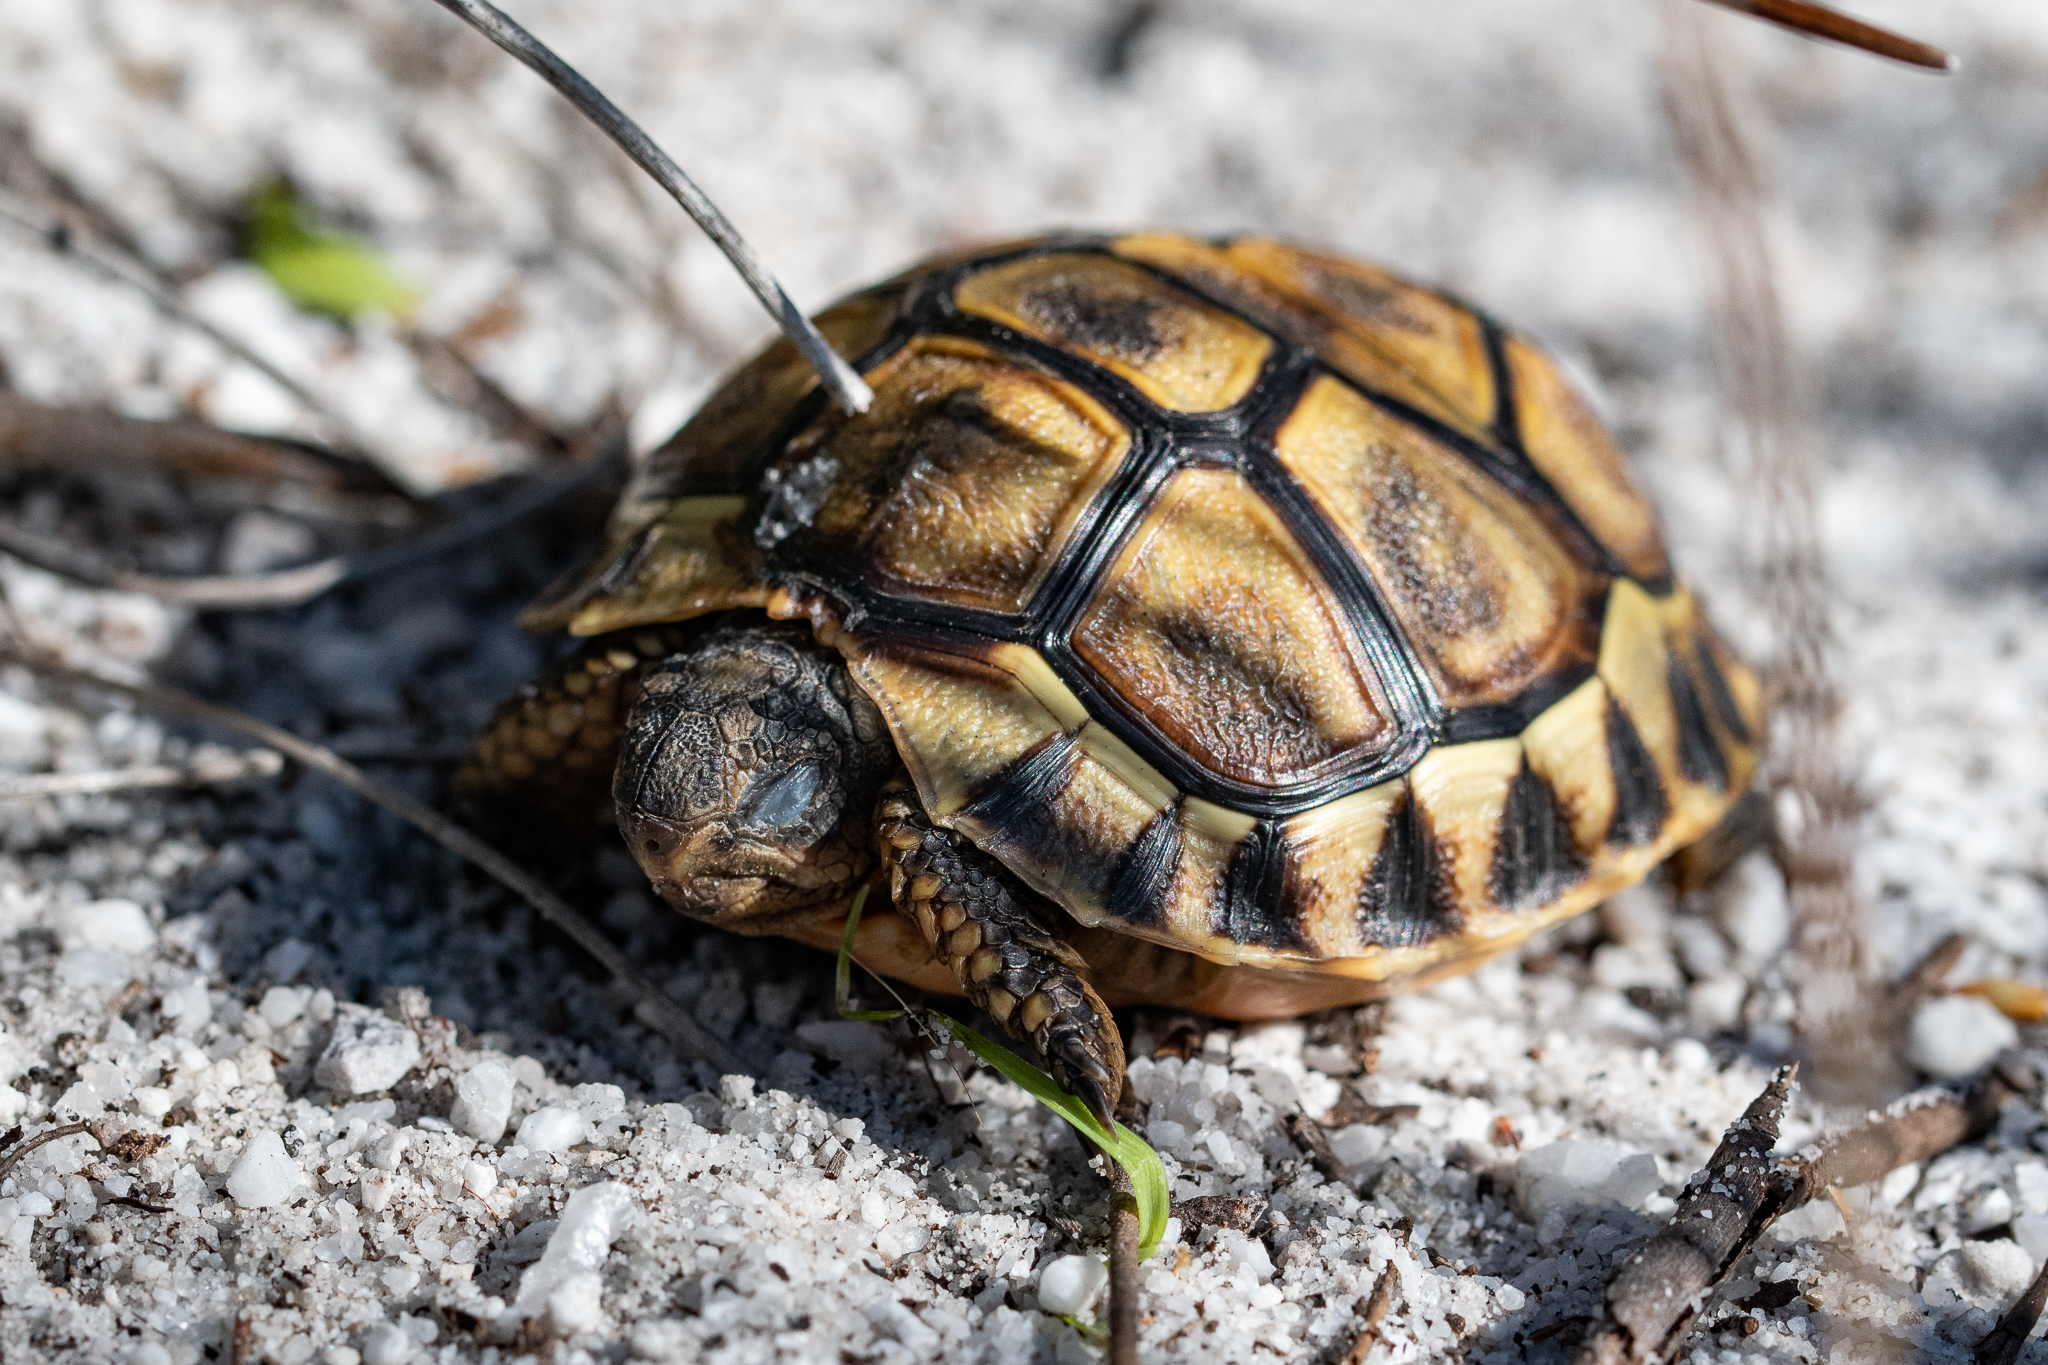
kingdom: Animalia
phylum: Chordata
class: Testudines
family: Testudinidae
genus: Chersina
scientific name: Chersina angulata
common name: South african bowsprit tortoise
